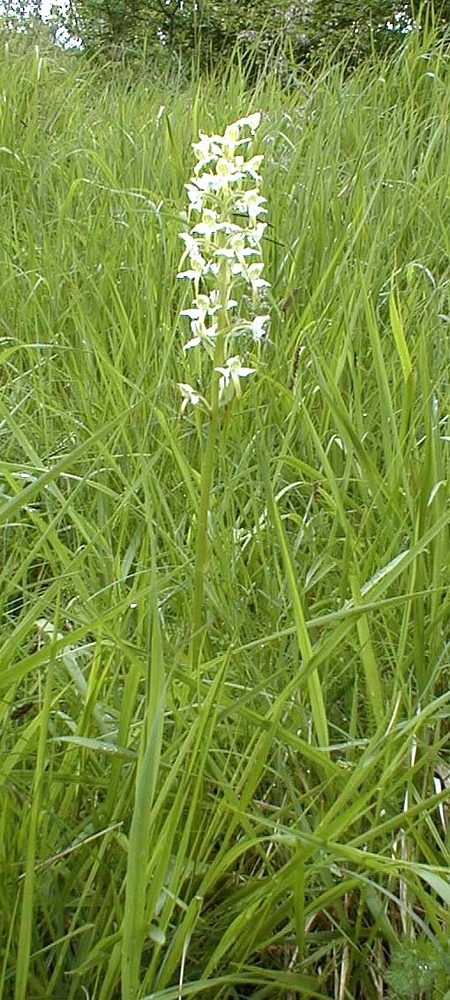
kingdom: Plantae
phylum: Tracheophyta
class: Liliopsida
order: Asparagales
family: Orchidaceae
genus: Platanthera
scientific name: Platanthera chlorantha
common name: Greater butterfly-orchid
